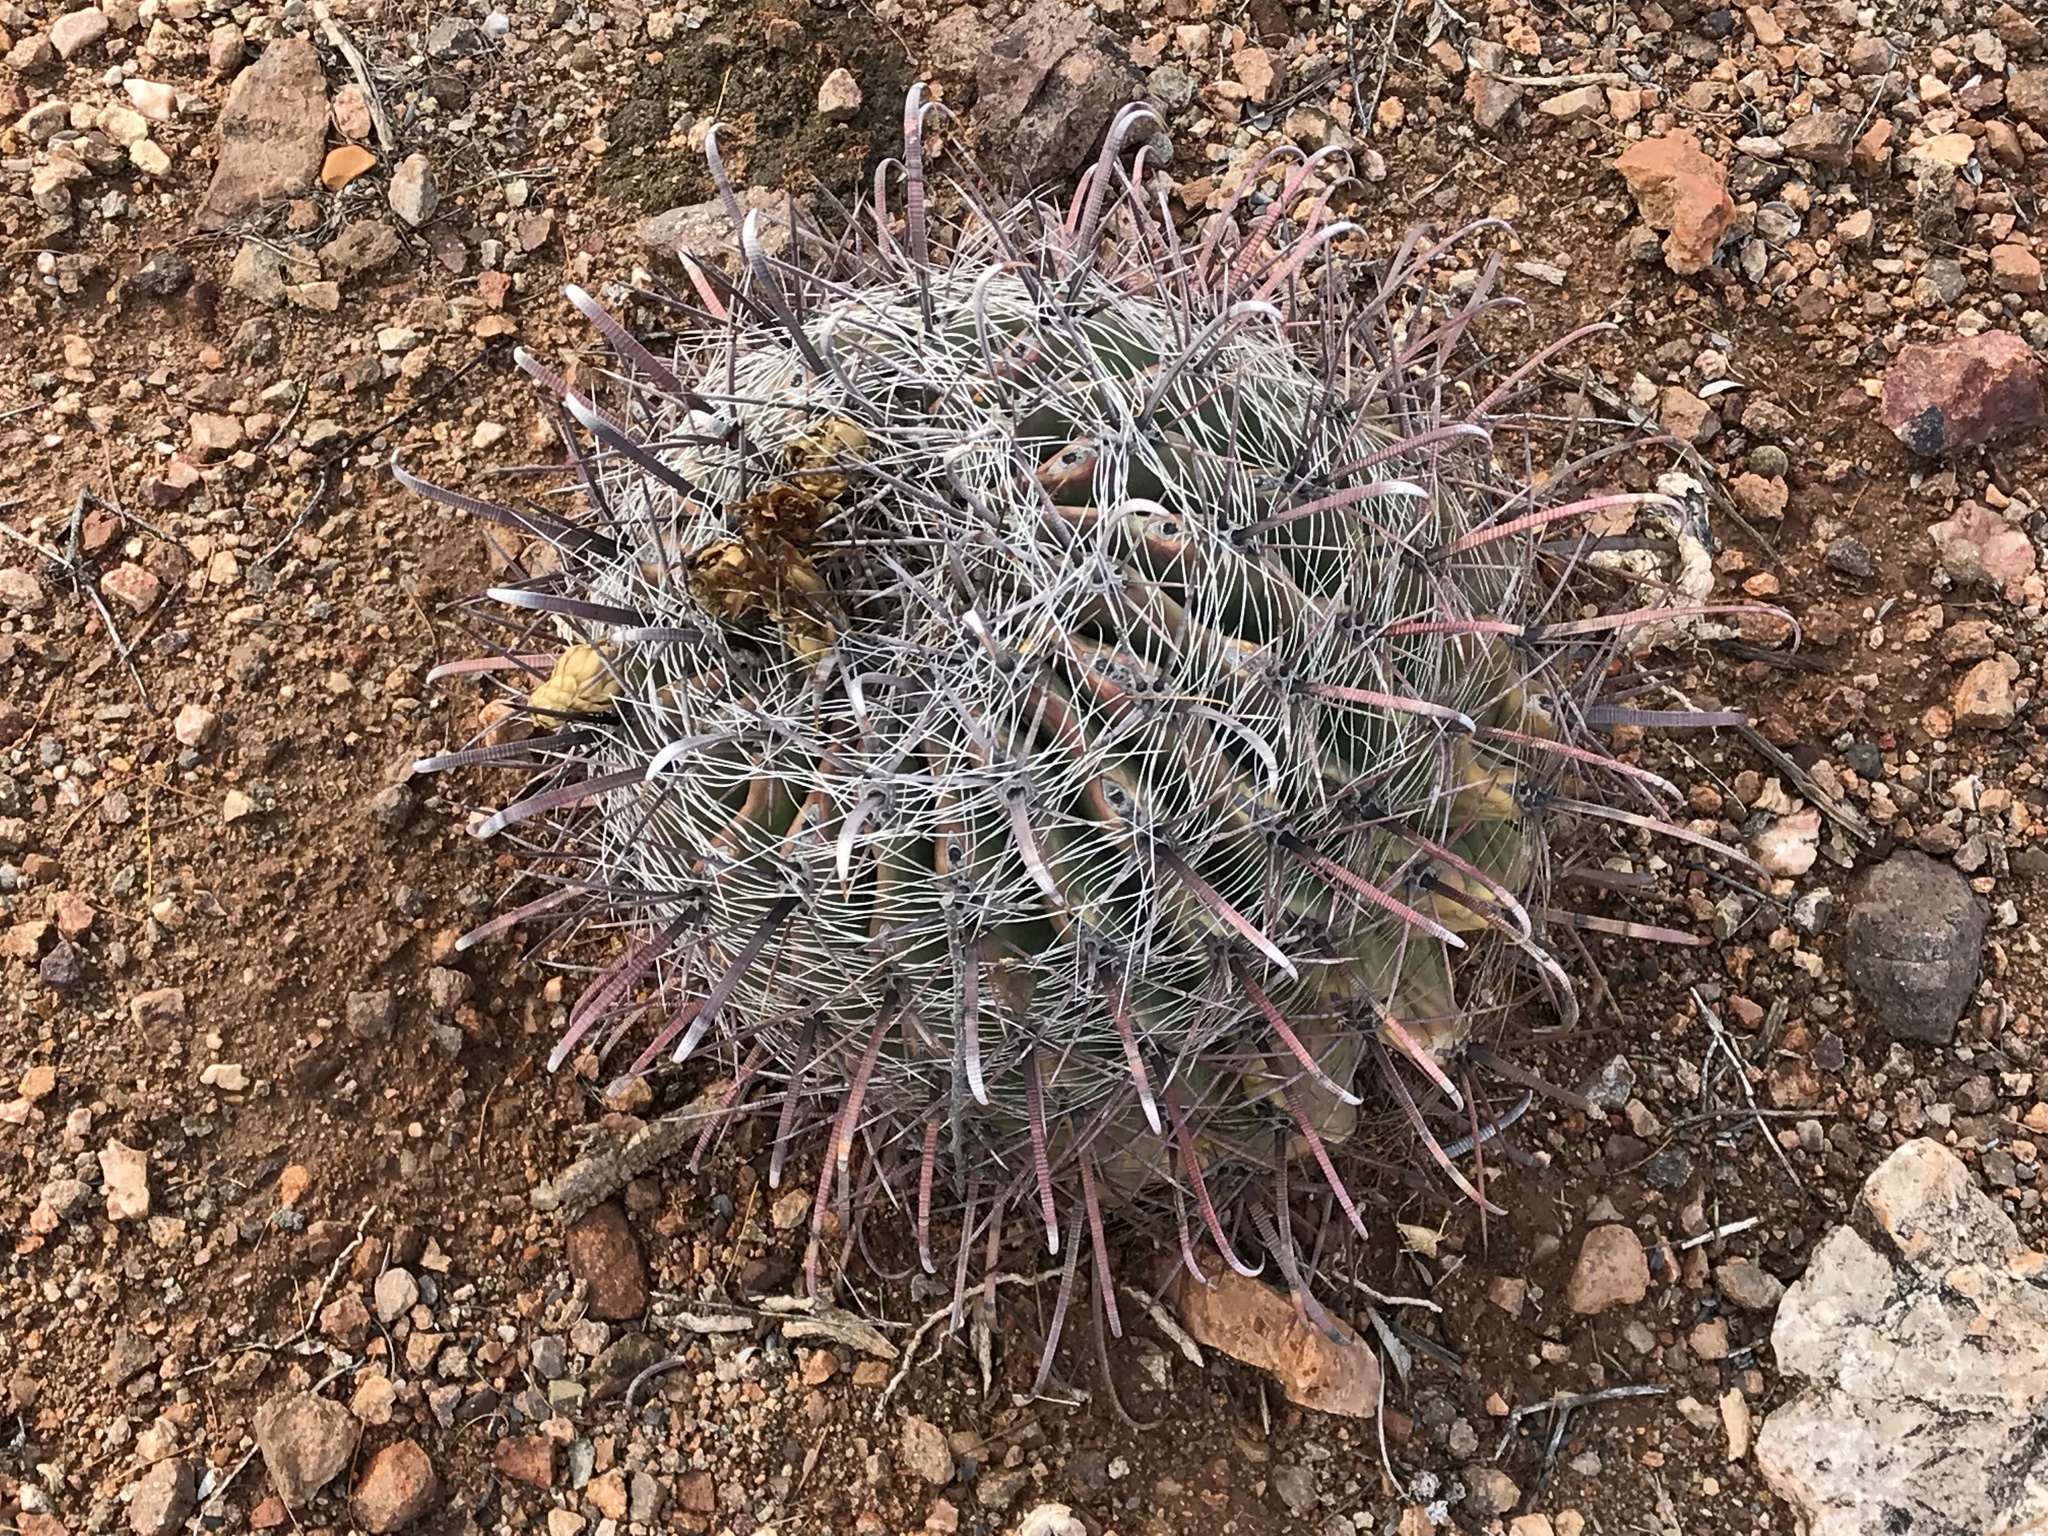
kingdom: Plantae
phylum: Tracheophyta
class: Magnoliopsida
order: Caryophyllales
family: Cactaceae
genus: Ferocactus
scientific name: Ferocactus wislizeni
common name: Candy barrel cactus
